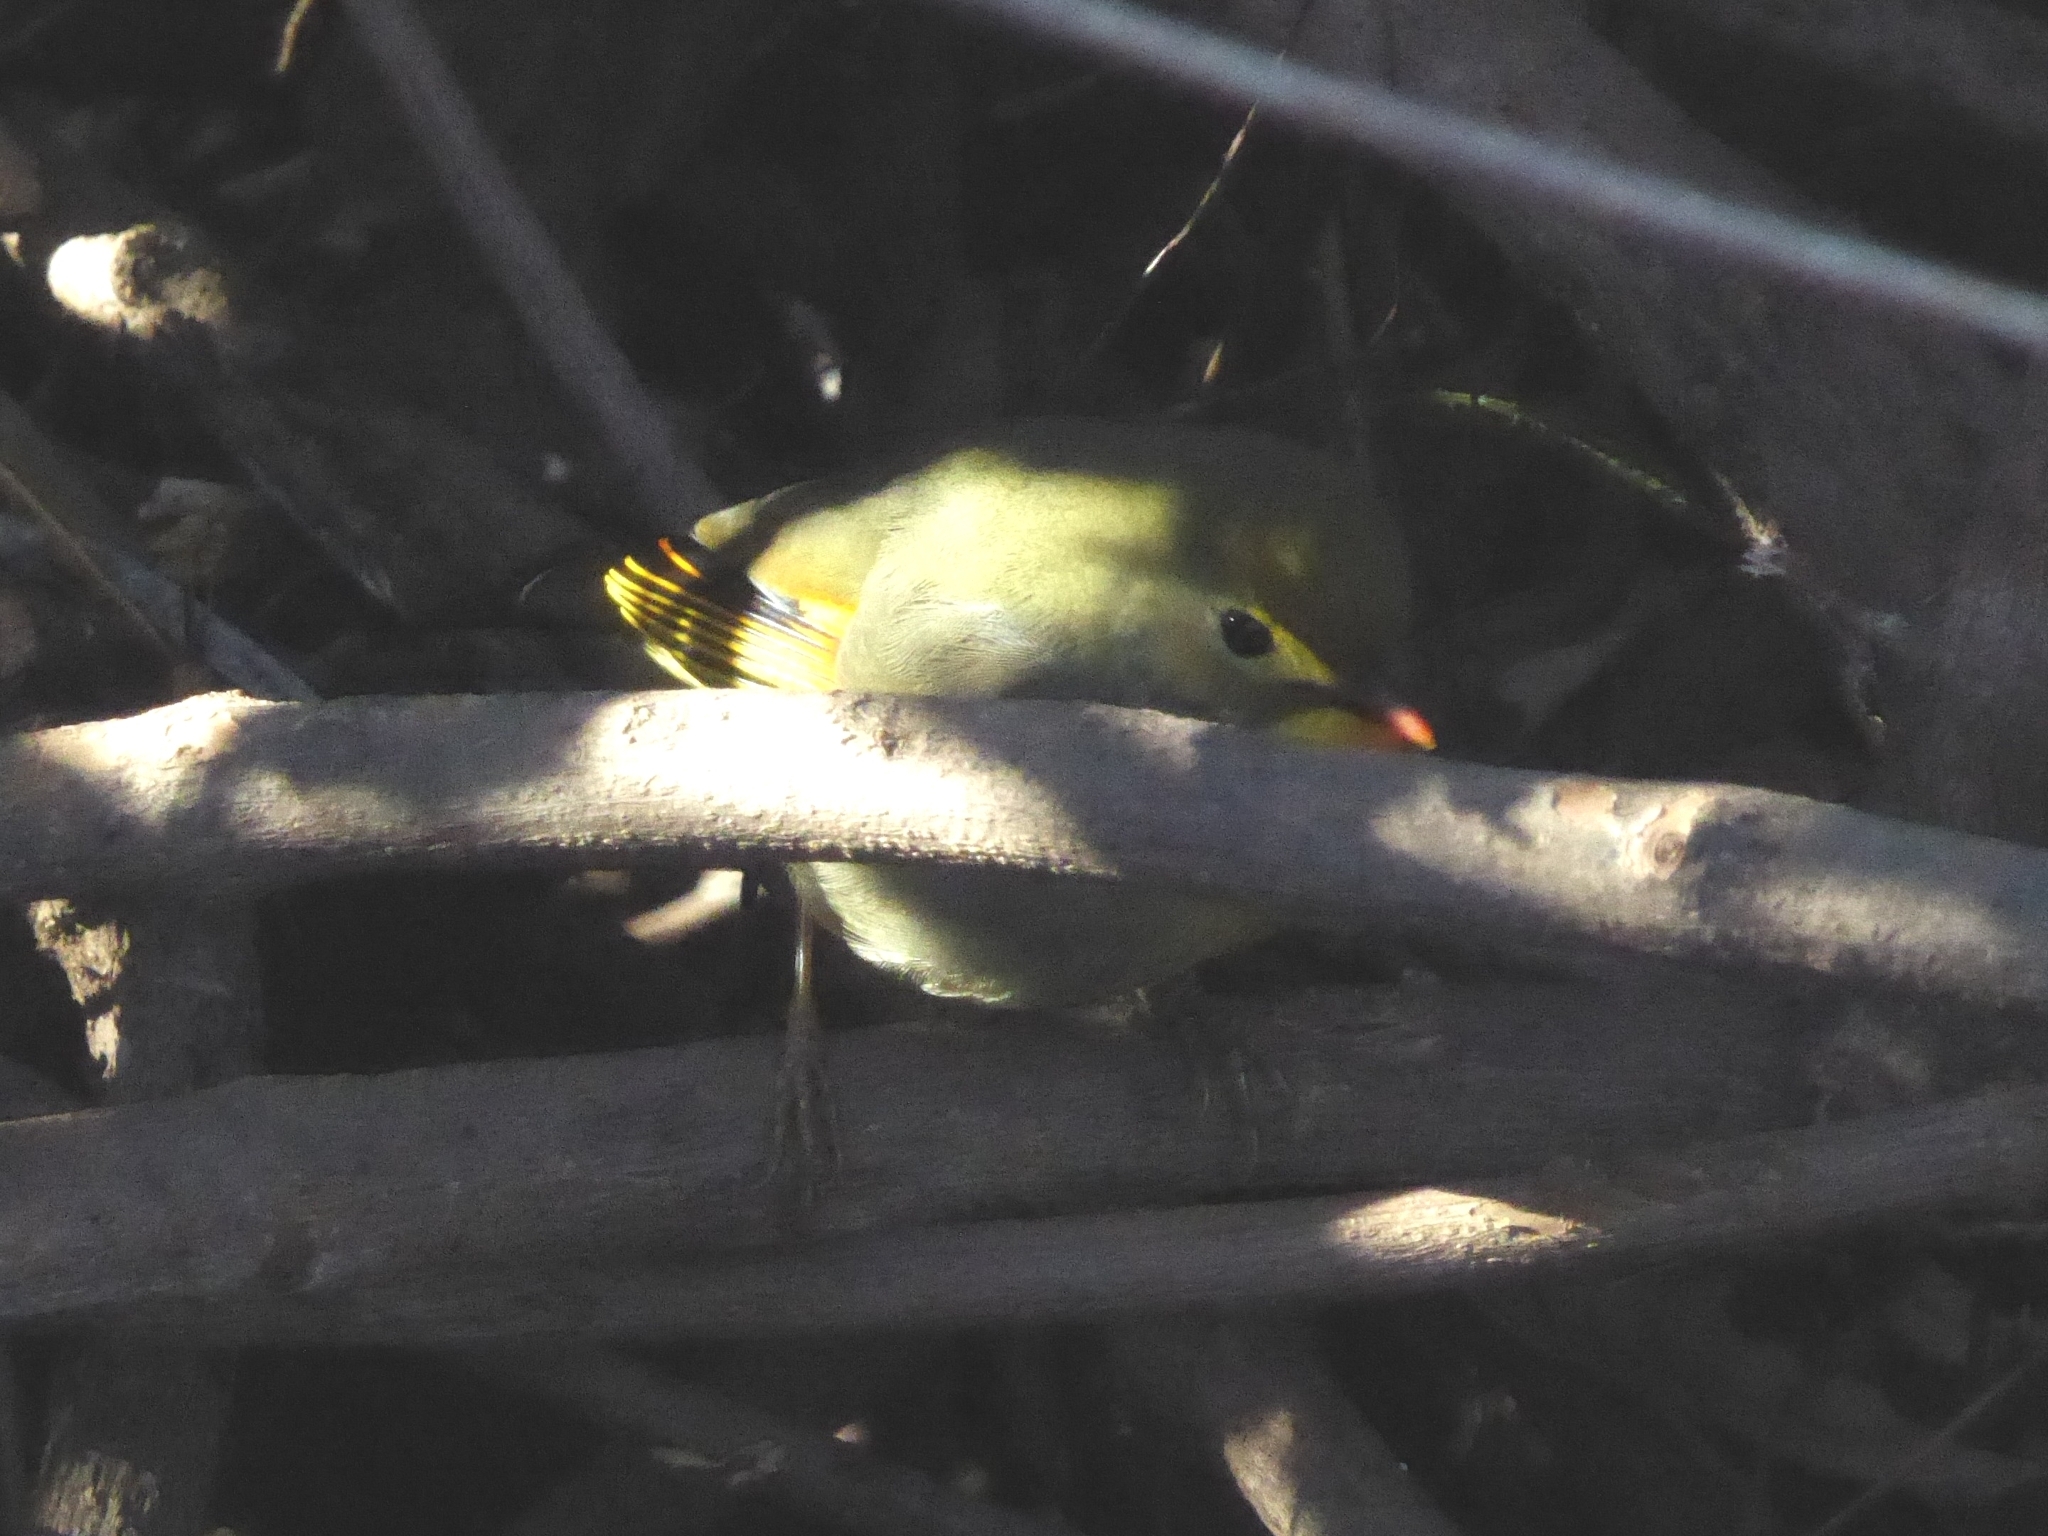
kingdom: Animalia
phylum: Chordata
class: Aves
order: Passeriformes
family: Leiothrichidae
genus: Leiothrix
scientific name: Leiothrix lutea
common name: Red-billed leiothrix
